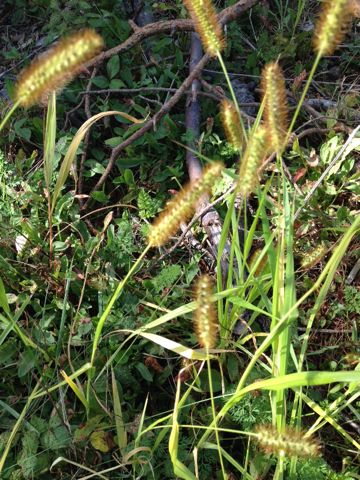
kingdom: Plantae
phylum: Tracheophyta
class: Liliopsida
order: Poales
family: Poaceae
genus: Setaria
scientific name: Setaria pumila
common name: Yellow bristle-grass
